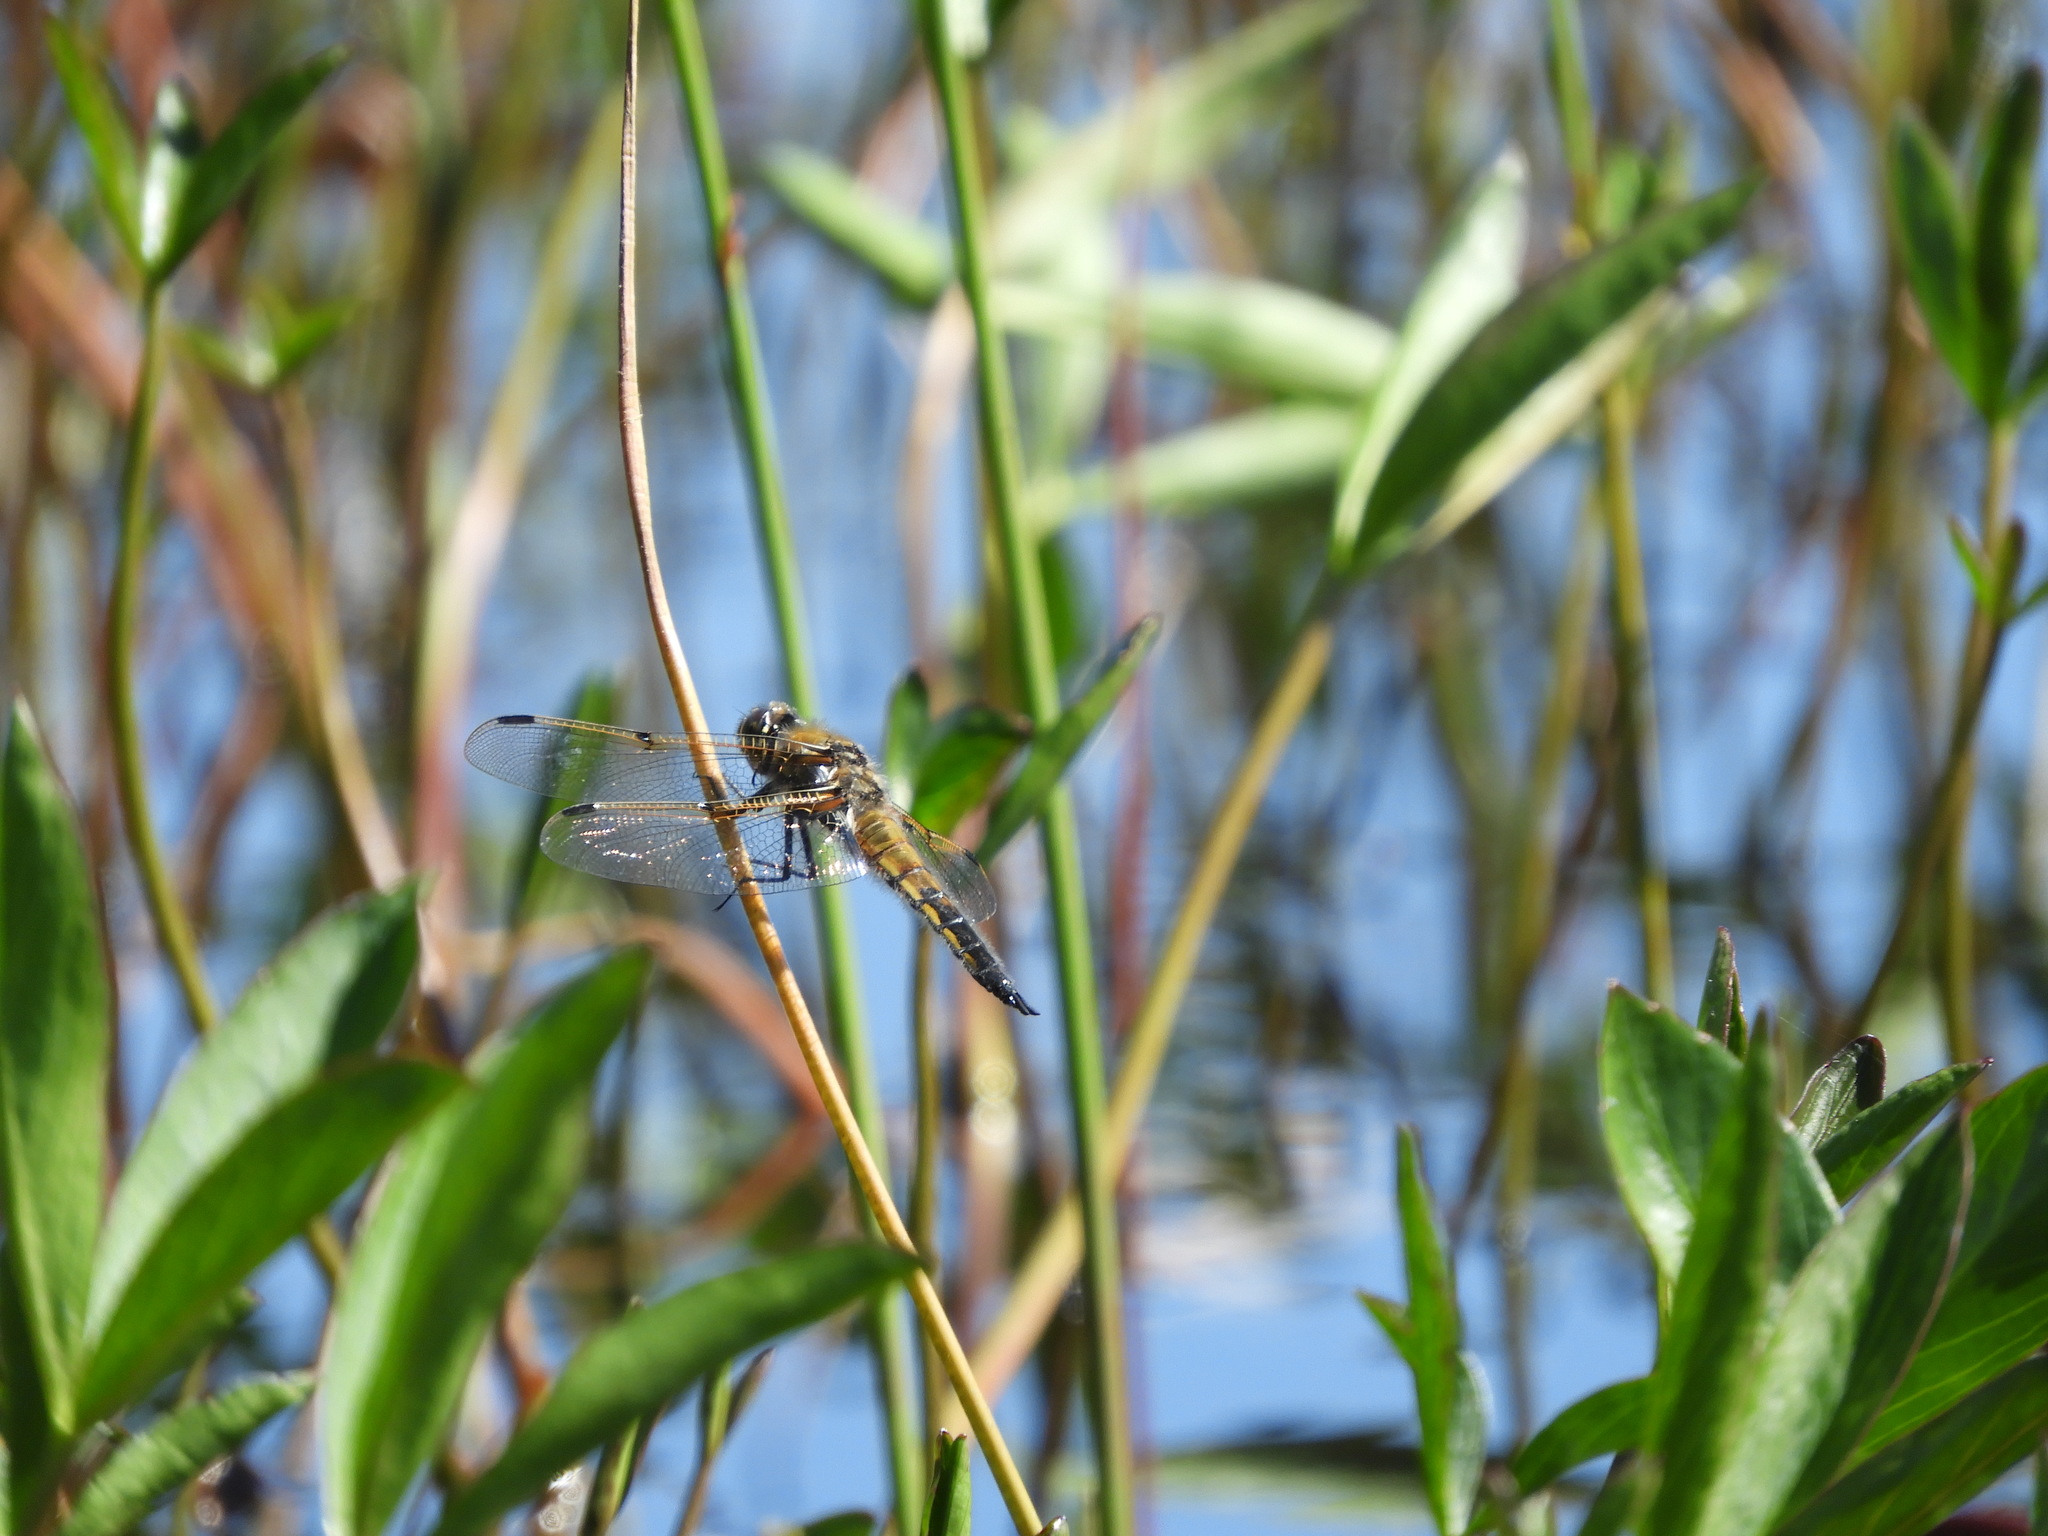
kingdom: Animalia
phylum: Arthropoda
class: Insecta
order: Odonata
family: Libellulidae
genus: Libellula
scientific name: Libellula quadrimaculata
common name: Four-spotted chaser
